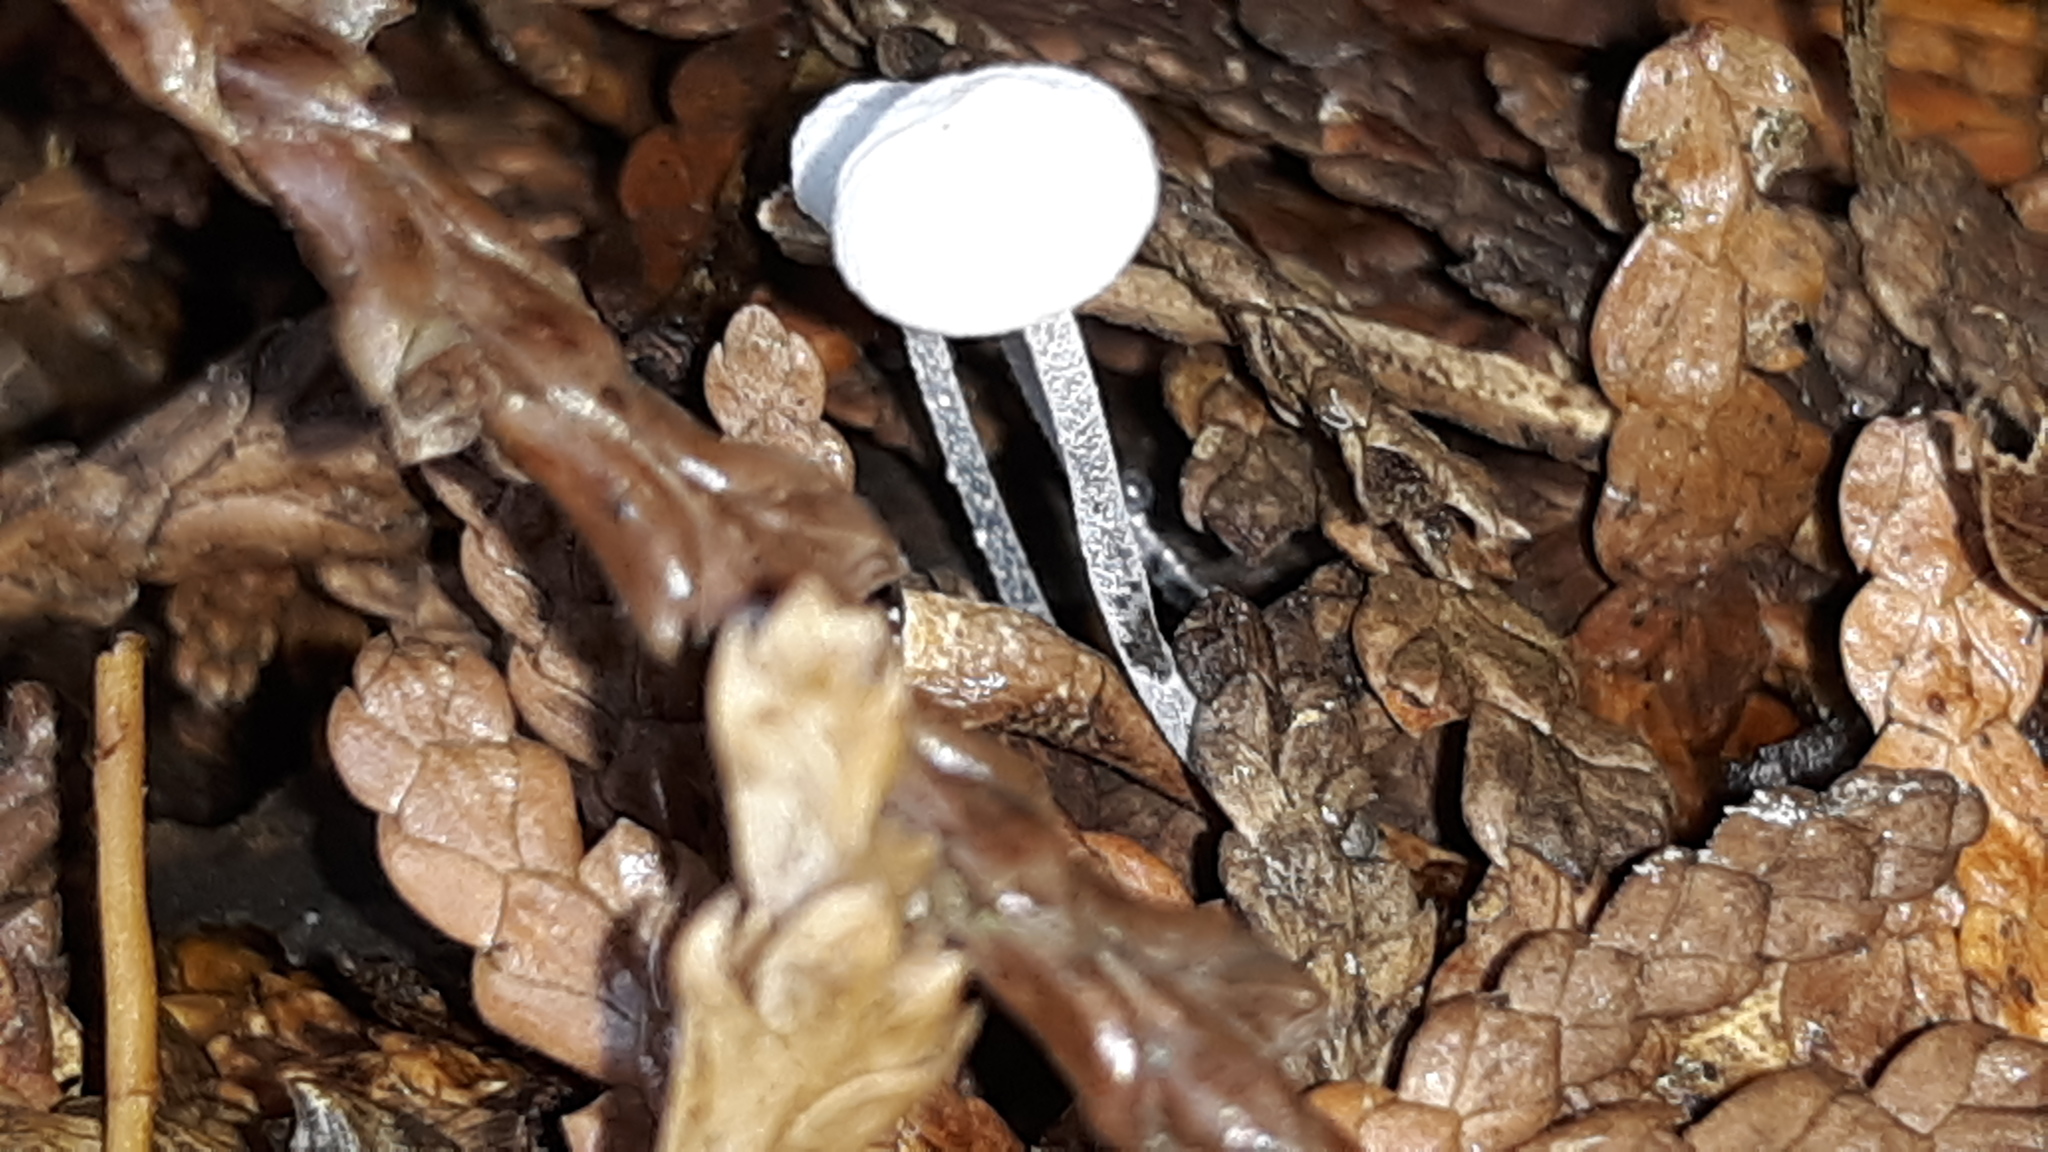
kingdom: Fungi
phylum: Basidiomycota
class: Agaricomycetes
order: Agaricales
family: Marasmiaceae
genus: Tetrapyrgos
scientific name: Tetrapyrgos nigripes
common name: Black-stalked marasmius
